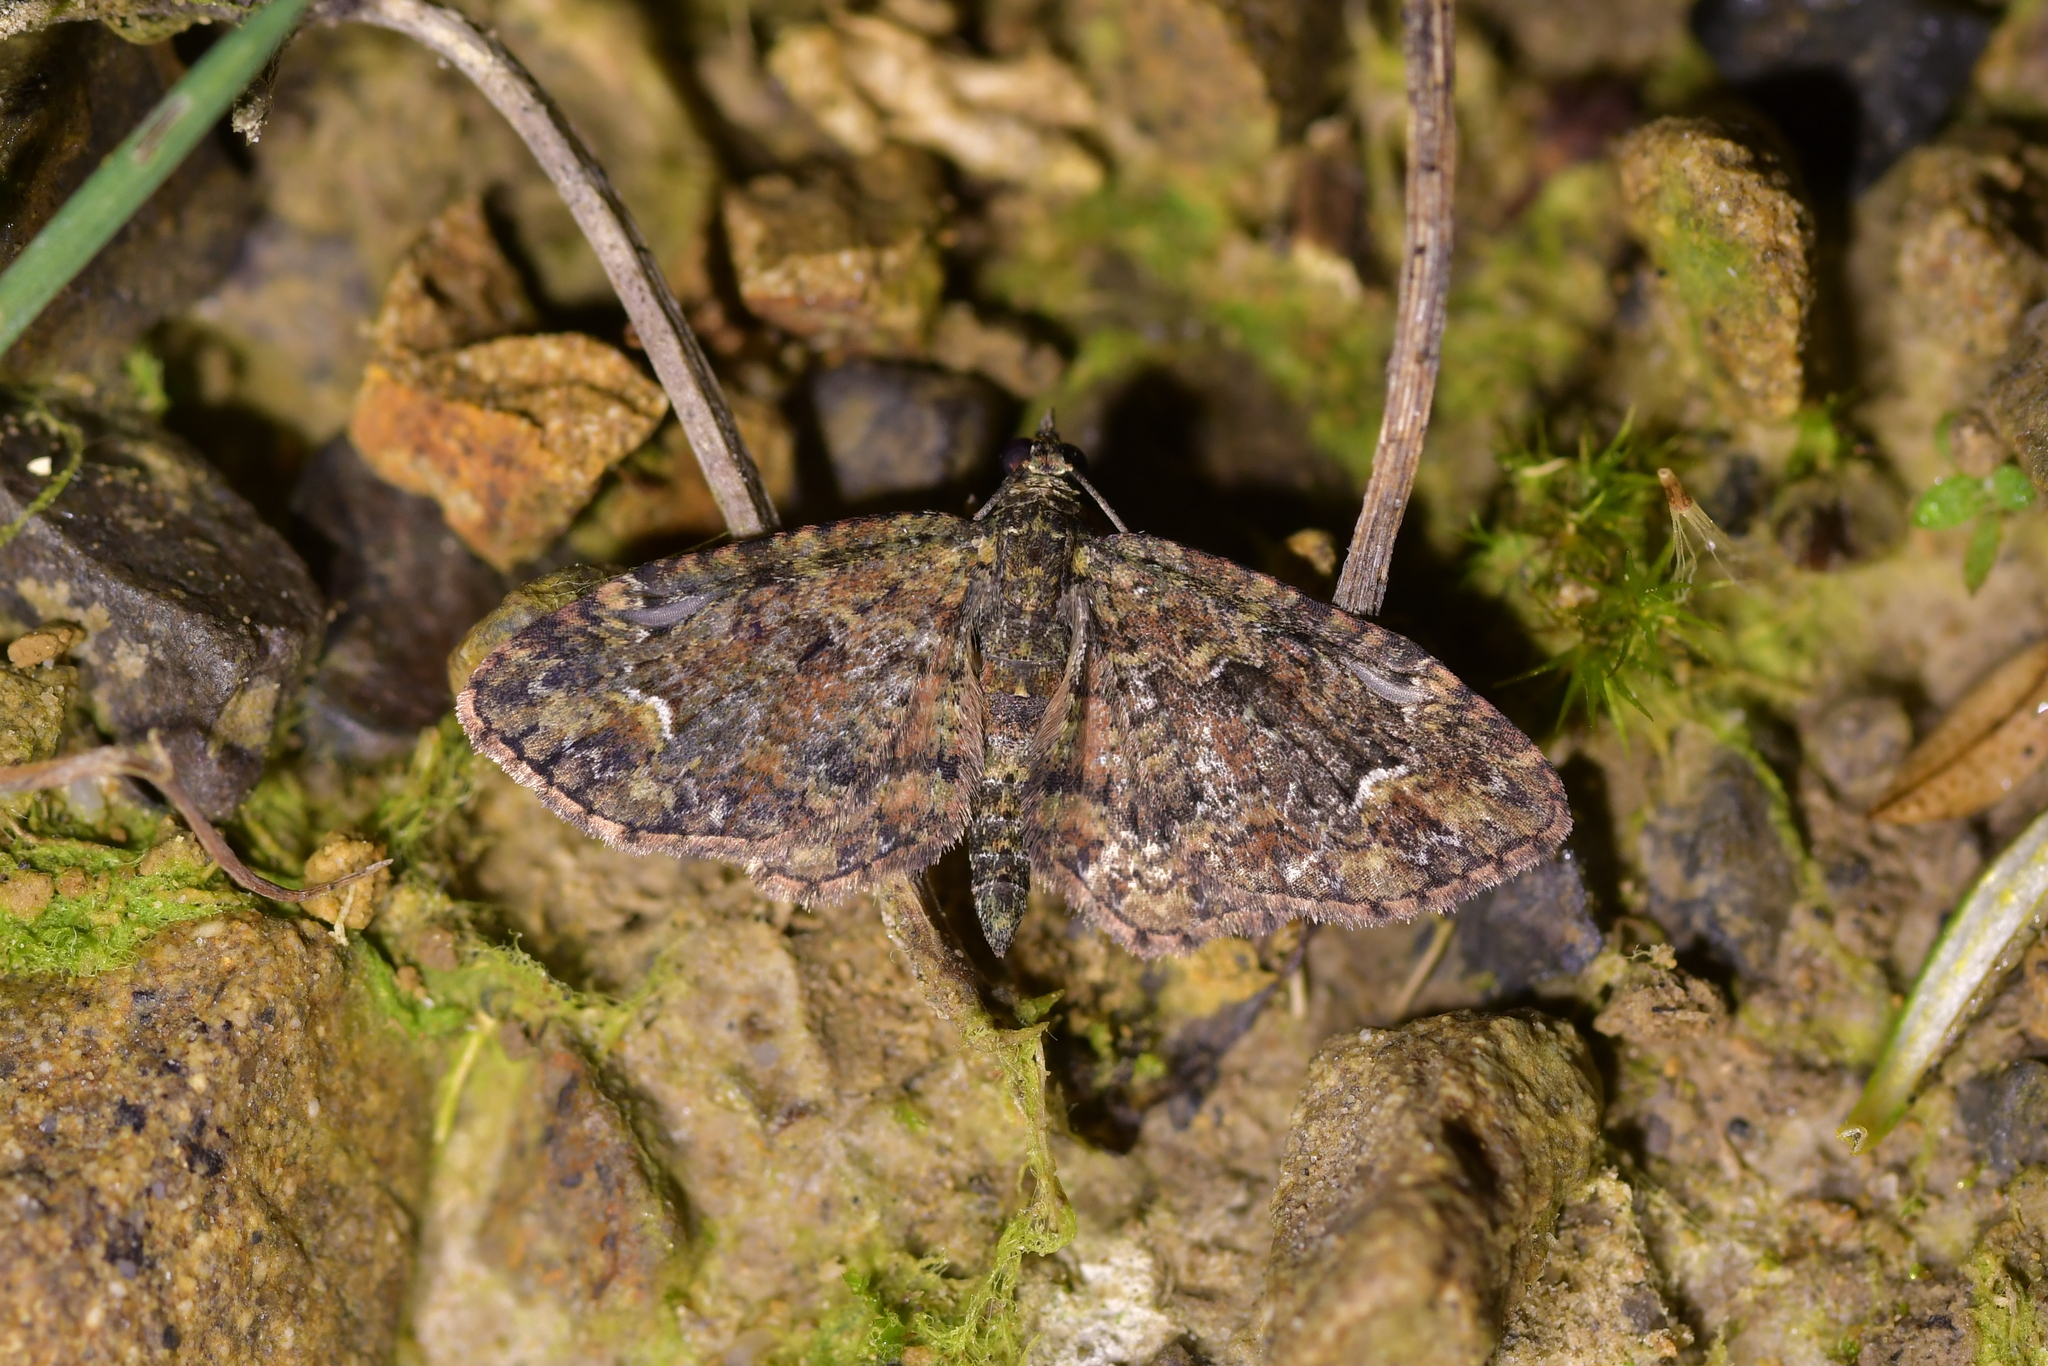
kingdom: Animalia
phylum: Arthropoda
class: Insecta
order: Lepidoptera
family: Geometridae
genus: Pasiphilodes
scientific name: Pasiphilodes testulata
